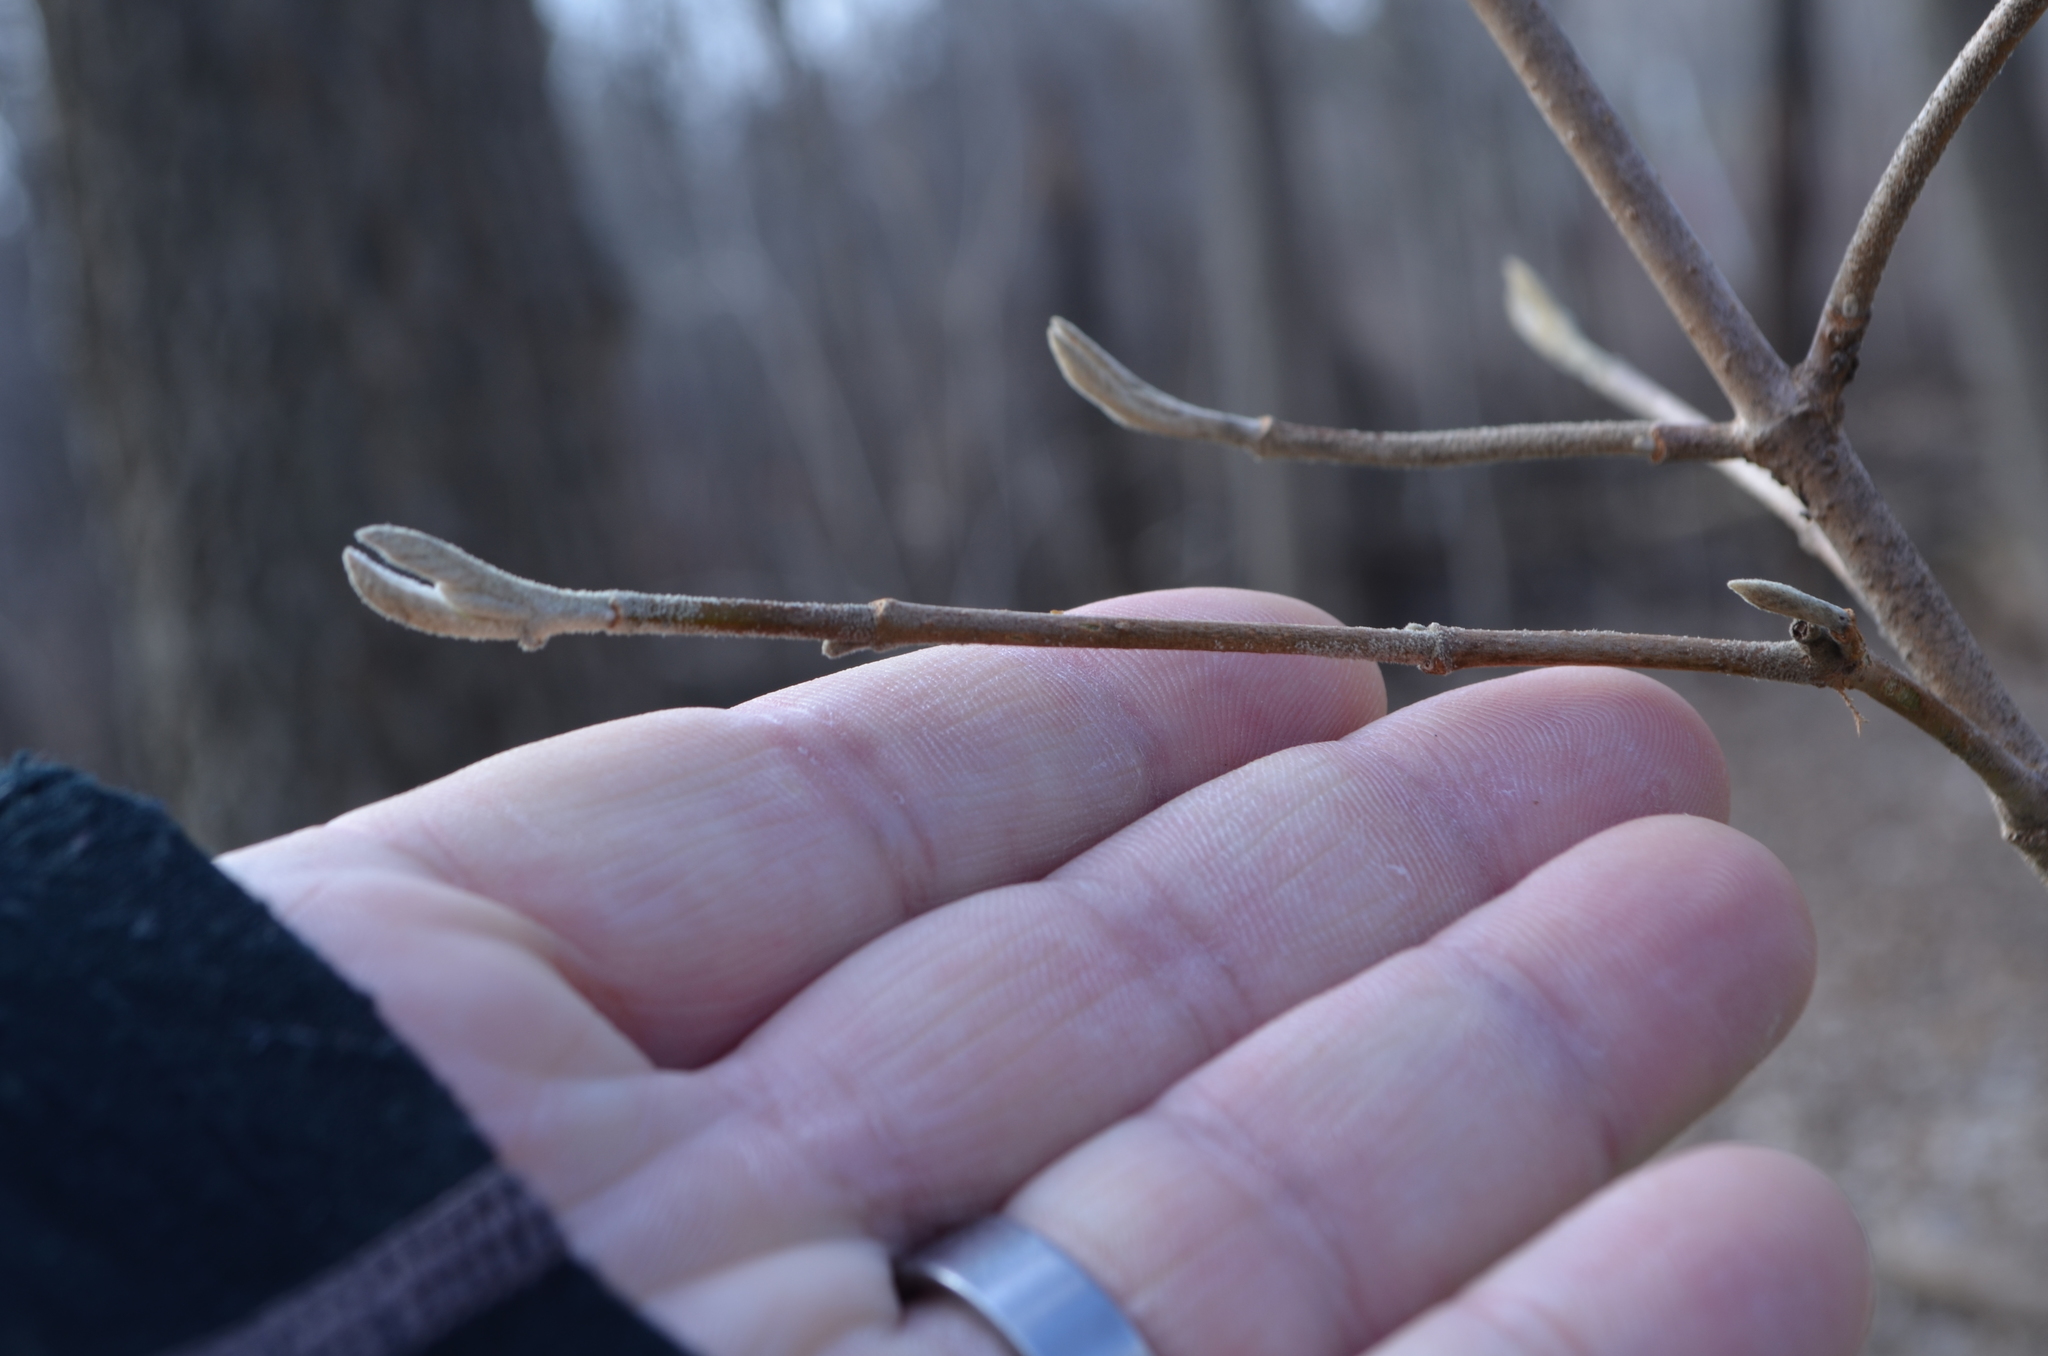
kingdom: Plantae
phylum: Tracheophyta
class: Magnoliopsida
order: Dipsacales
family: Viburnaceae
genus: Viburnum
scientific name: Viburnum lantana
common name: Wayfaring tree
